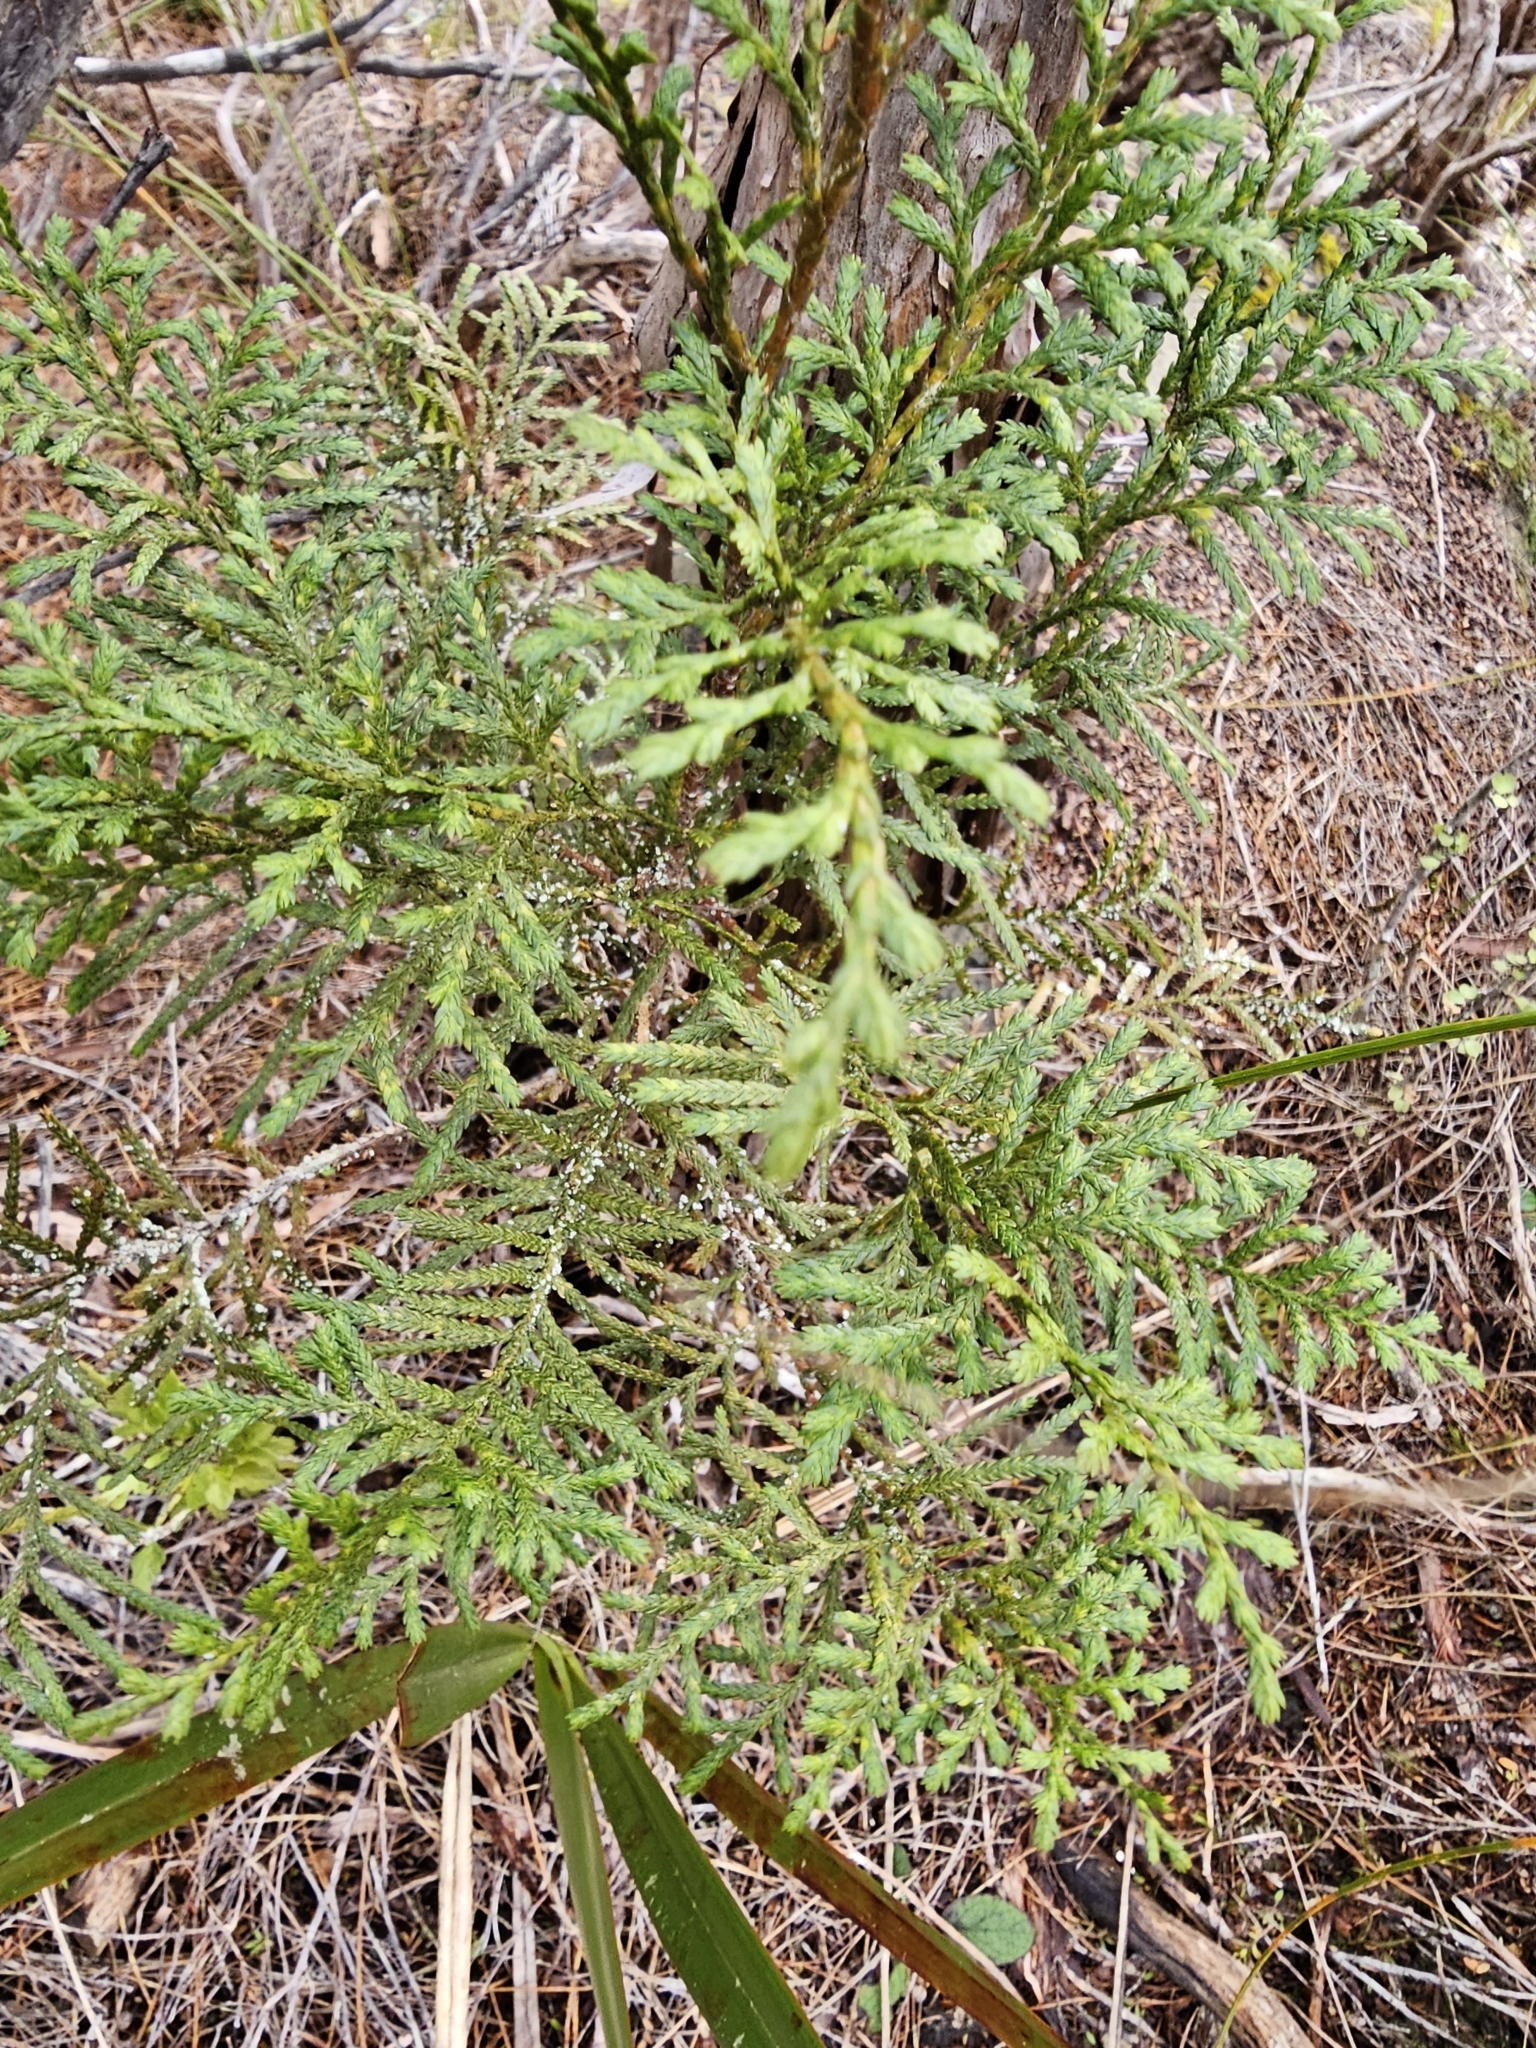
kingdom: Plantae
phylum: Tracheophyta
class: Pinopsida
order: Pinales
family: Cupressaceae
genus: Libocedrus
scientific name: Libocedrus bidwillii
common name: Cedar
